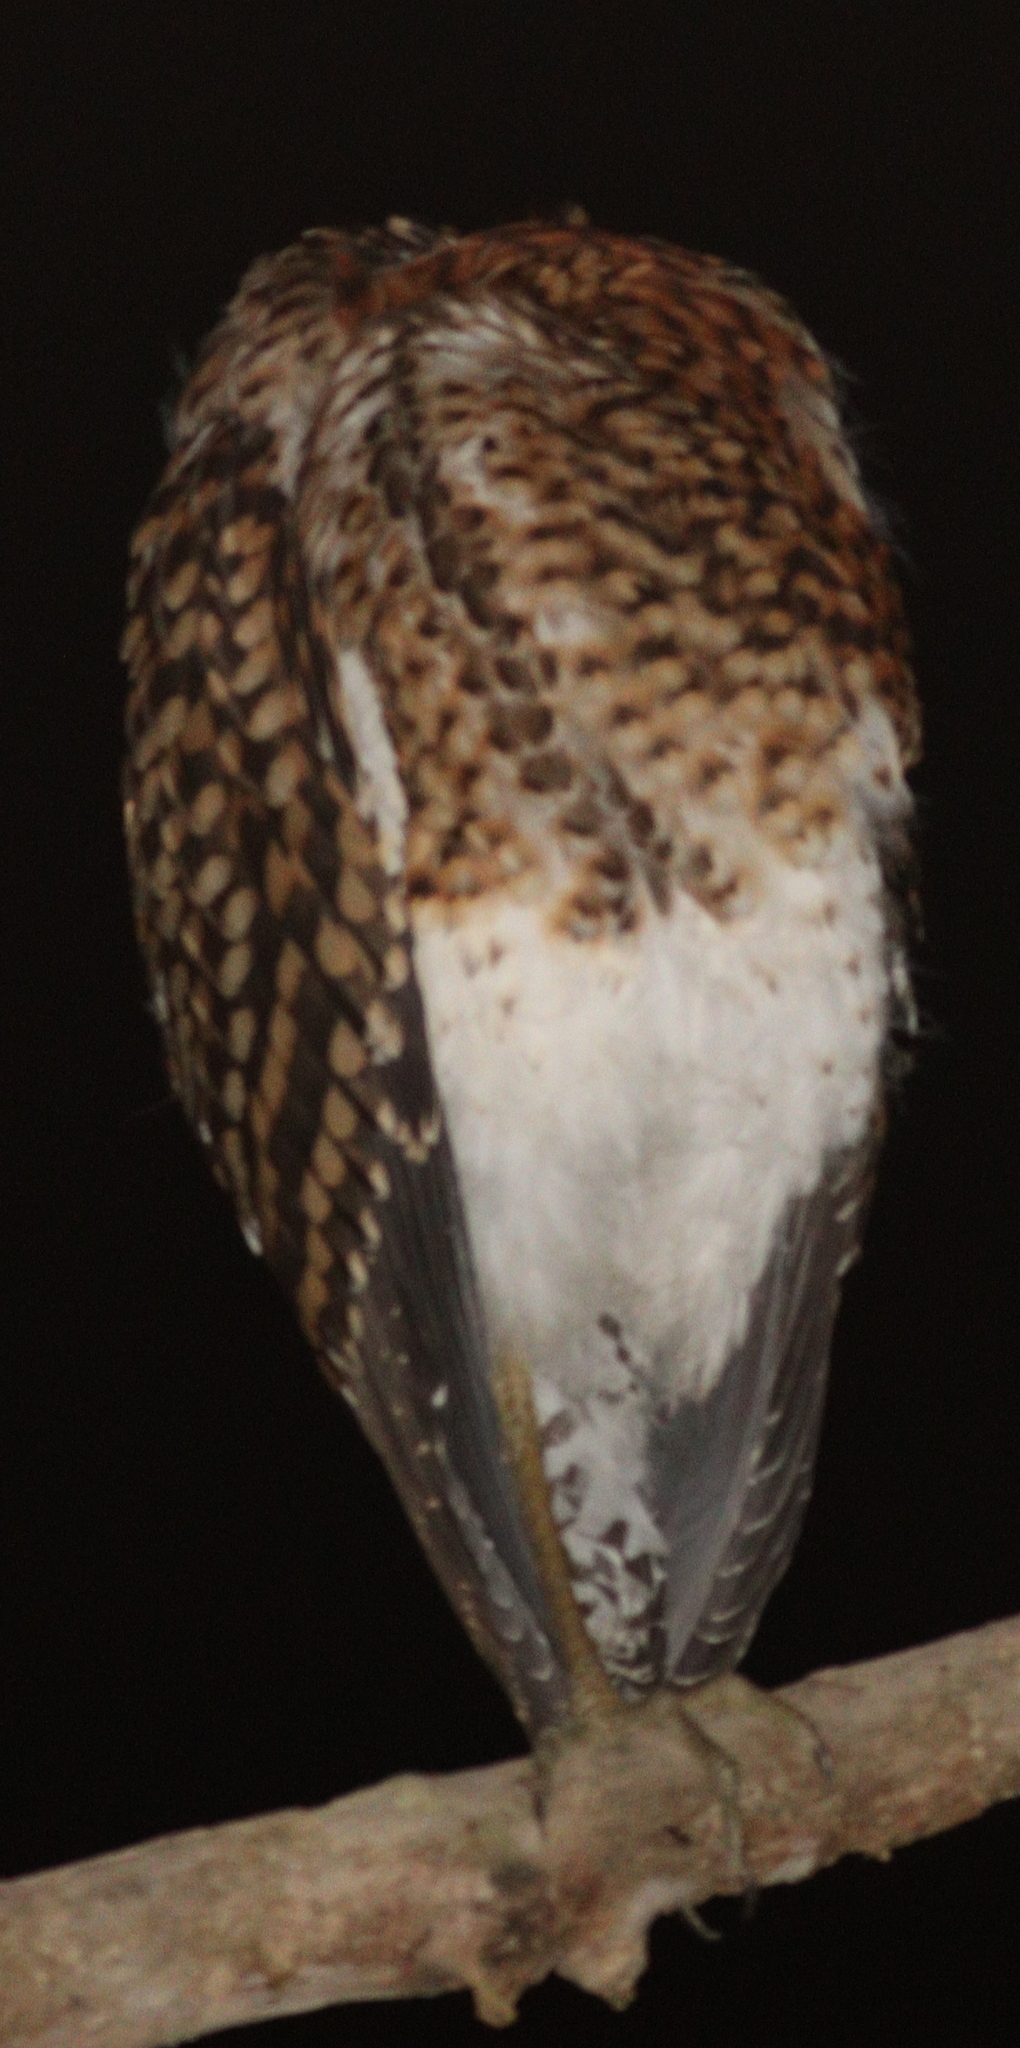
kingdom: Animalia
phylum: Chordata
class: Aves
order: Pelecaniformes
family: Ardeidae
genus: Tigrisoma
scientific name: Tigrisoma lineatum
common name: Rufescent tiger-heron
